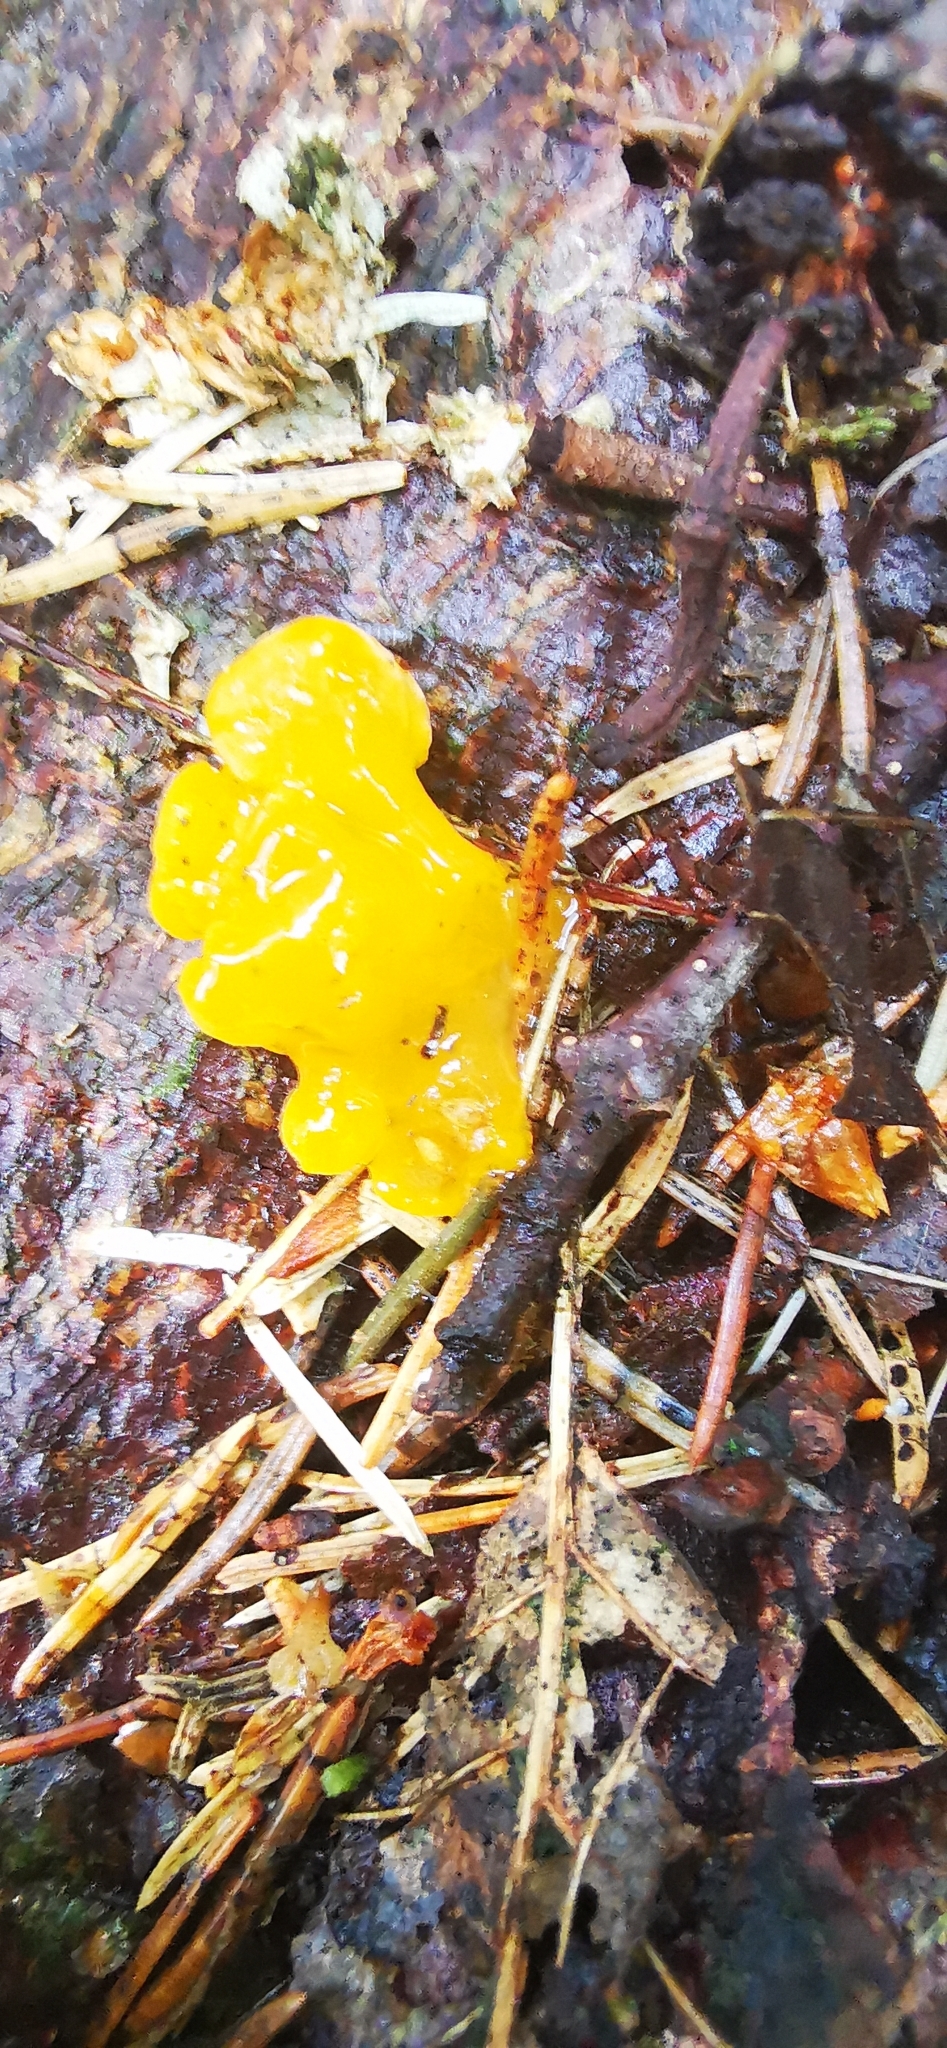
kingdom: Fungi
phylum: Basidiomycota
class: Tremellomycetes
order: Tremellales
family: Tremellaceae
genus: Tremella
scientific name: Tremella mesenterica
